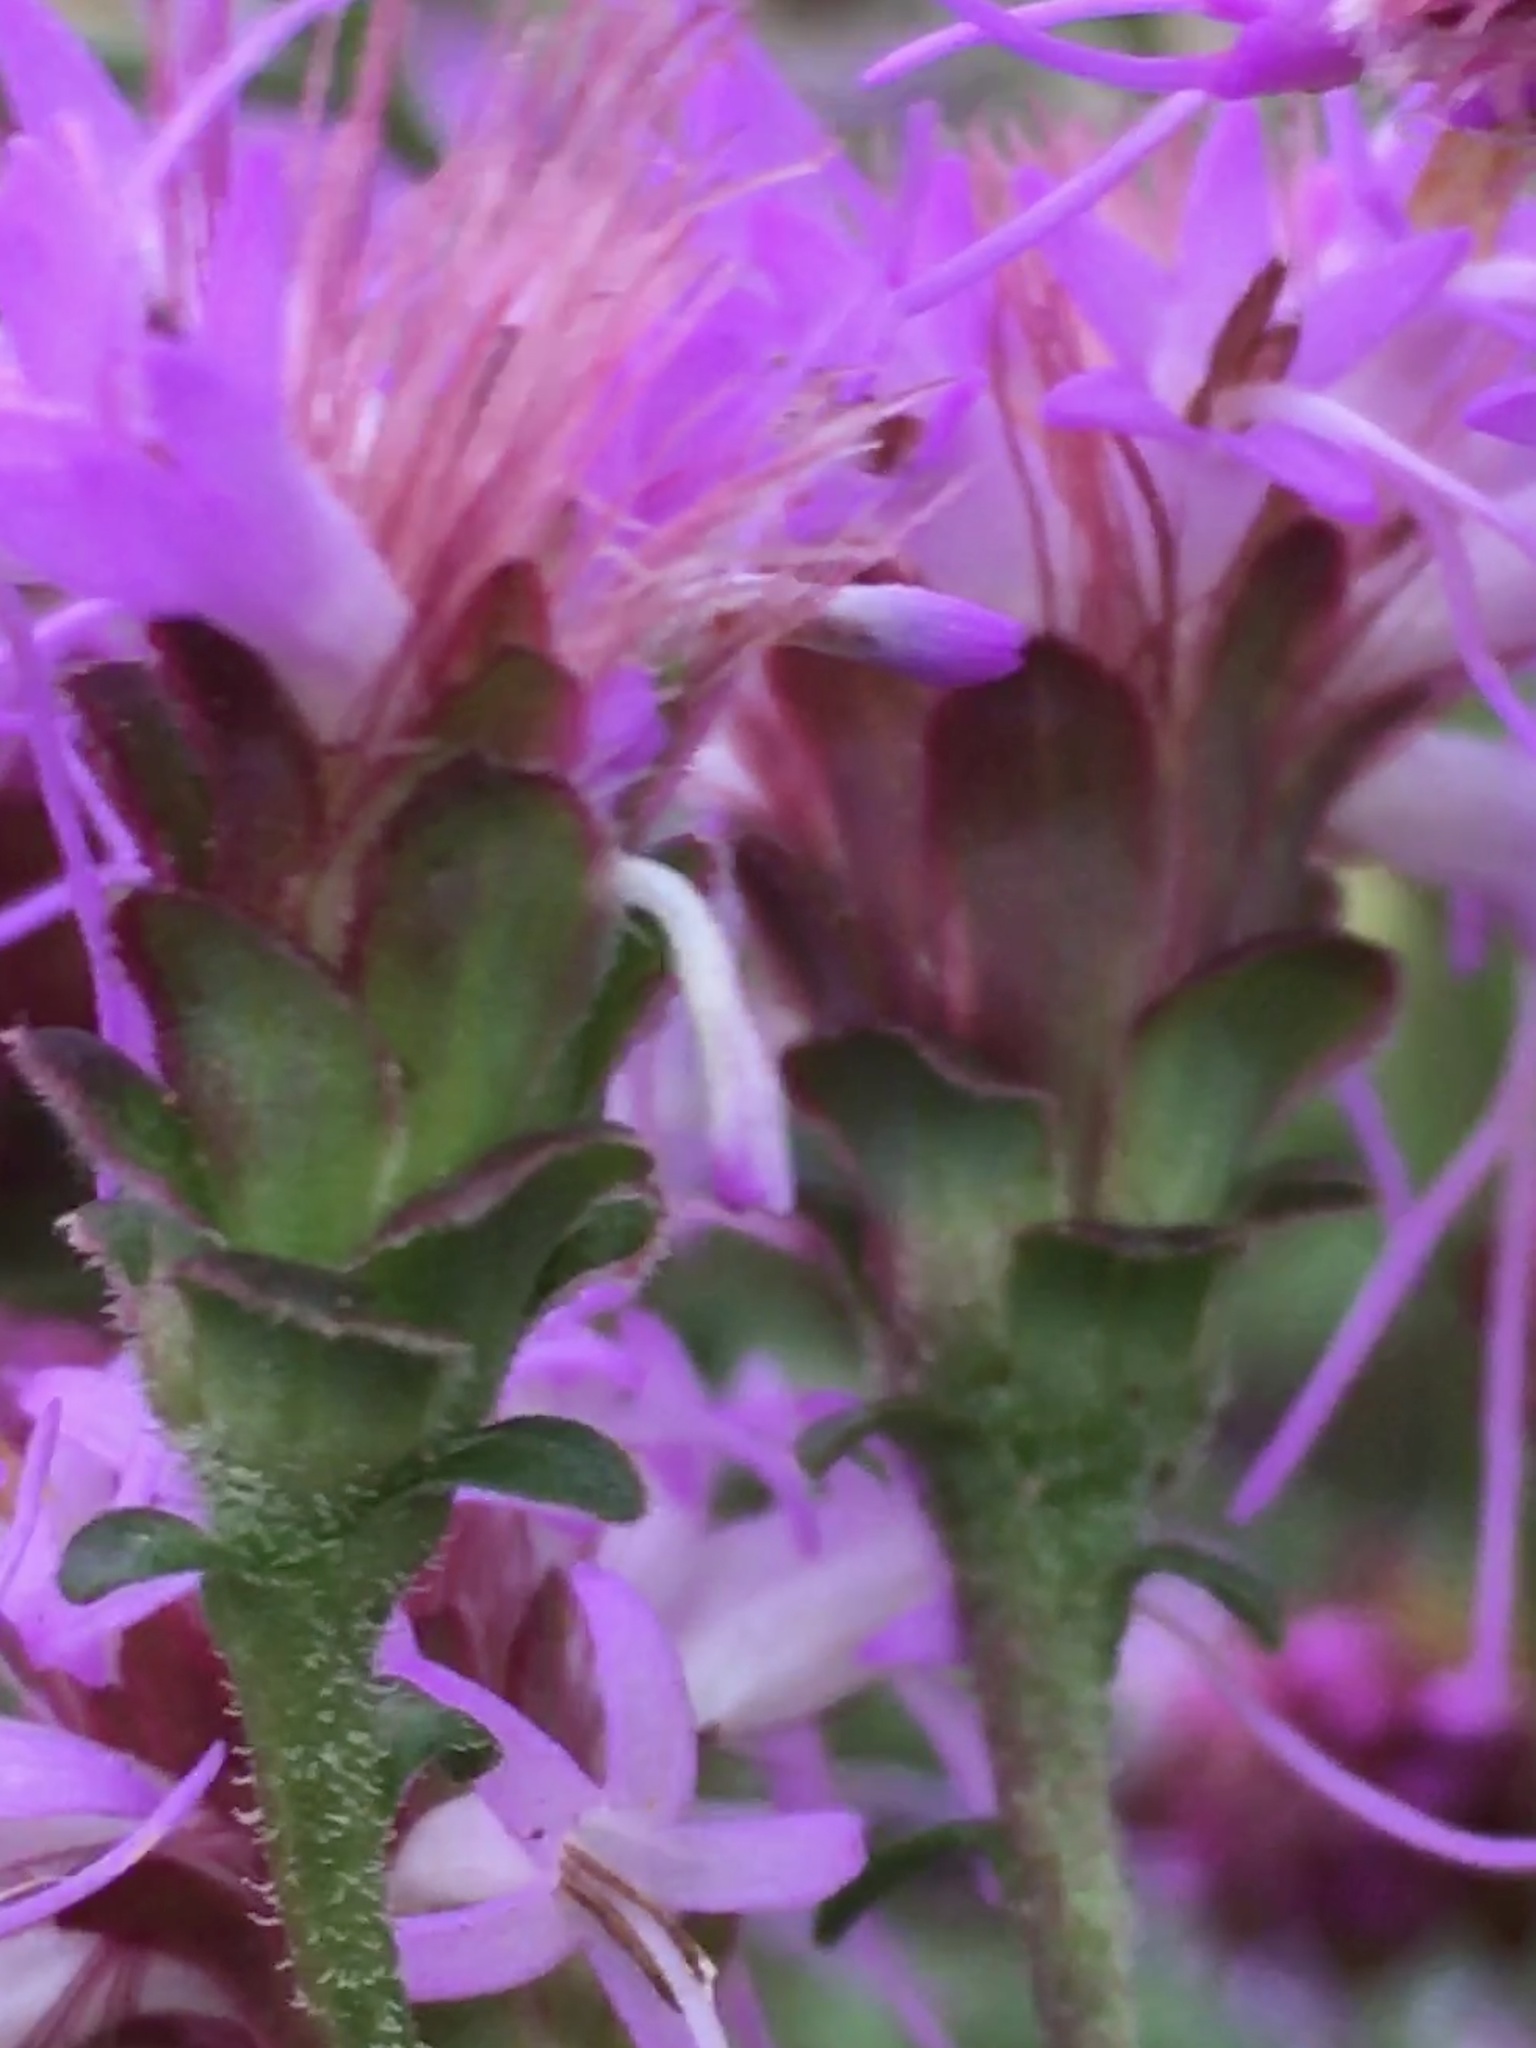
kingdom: Plantae
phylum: Tracheophyta
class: Magnoliopsida
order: Asterales
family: Asteraceae
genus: Carphephorus
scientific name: Carphephorus bellidifolius
